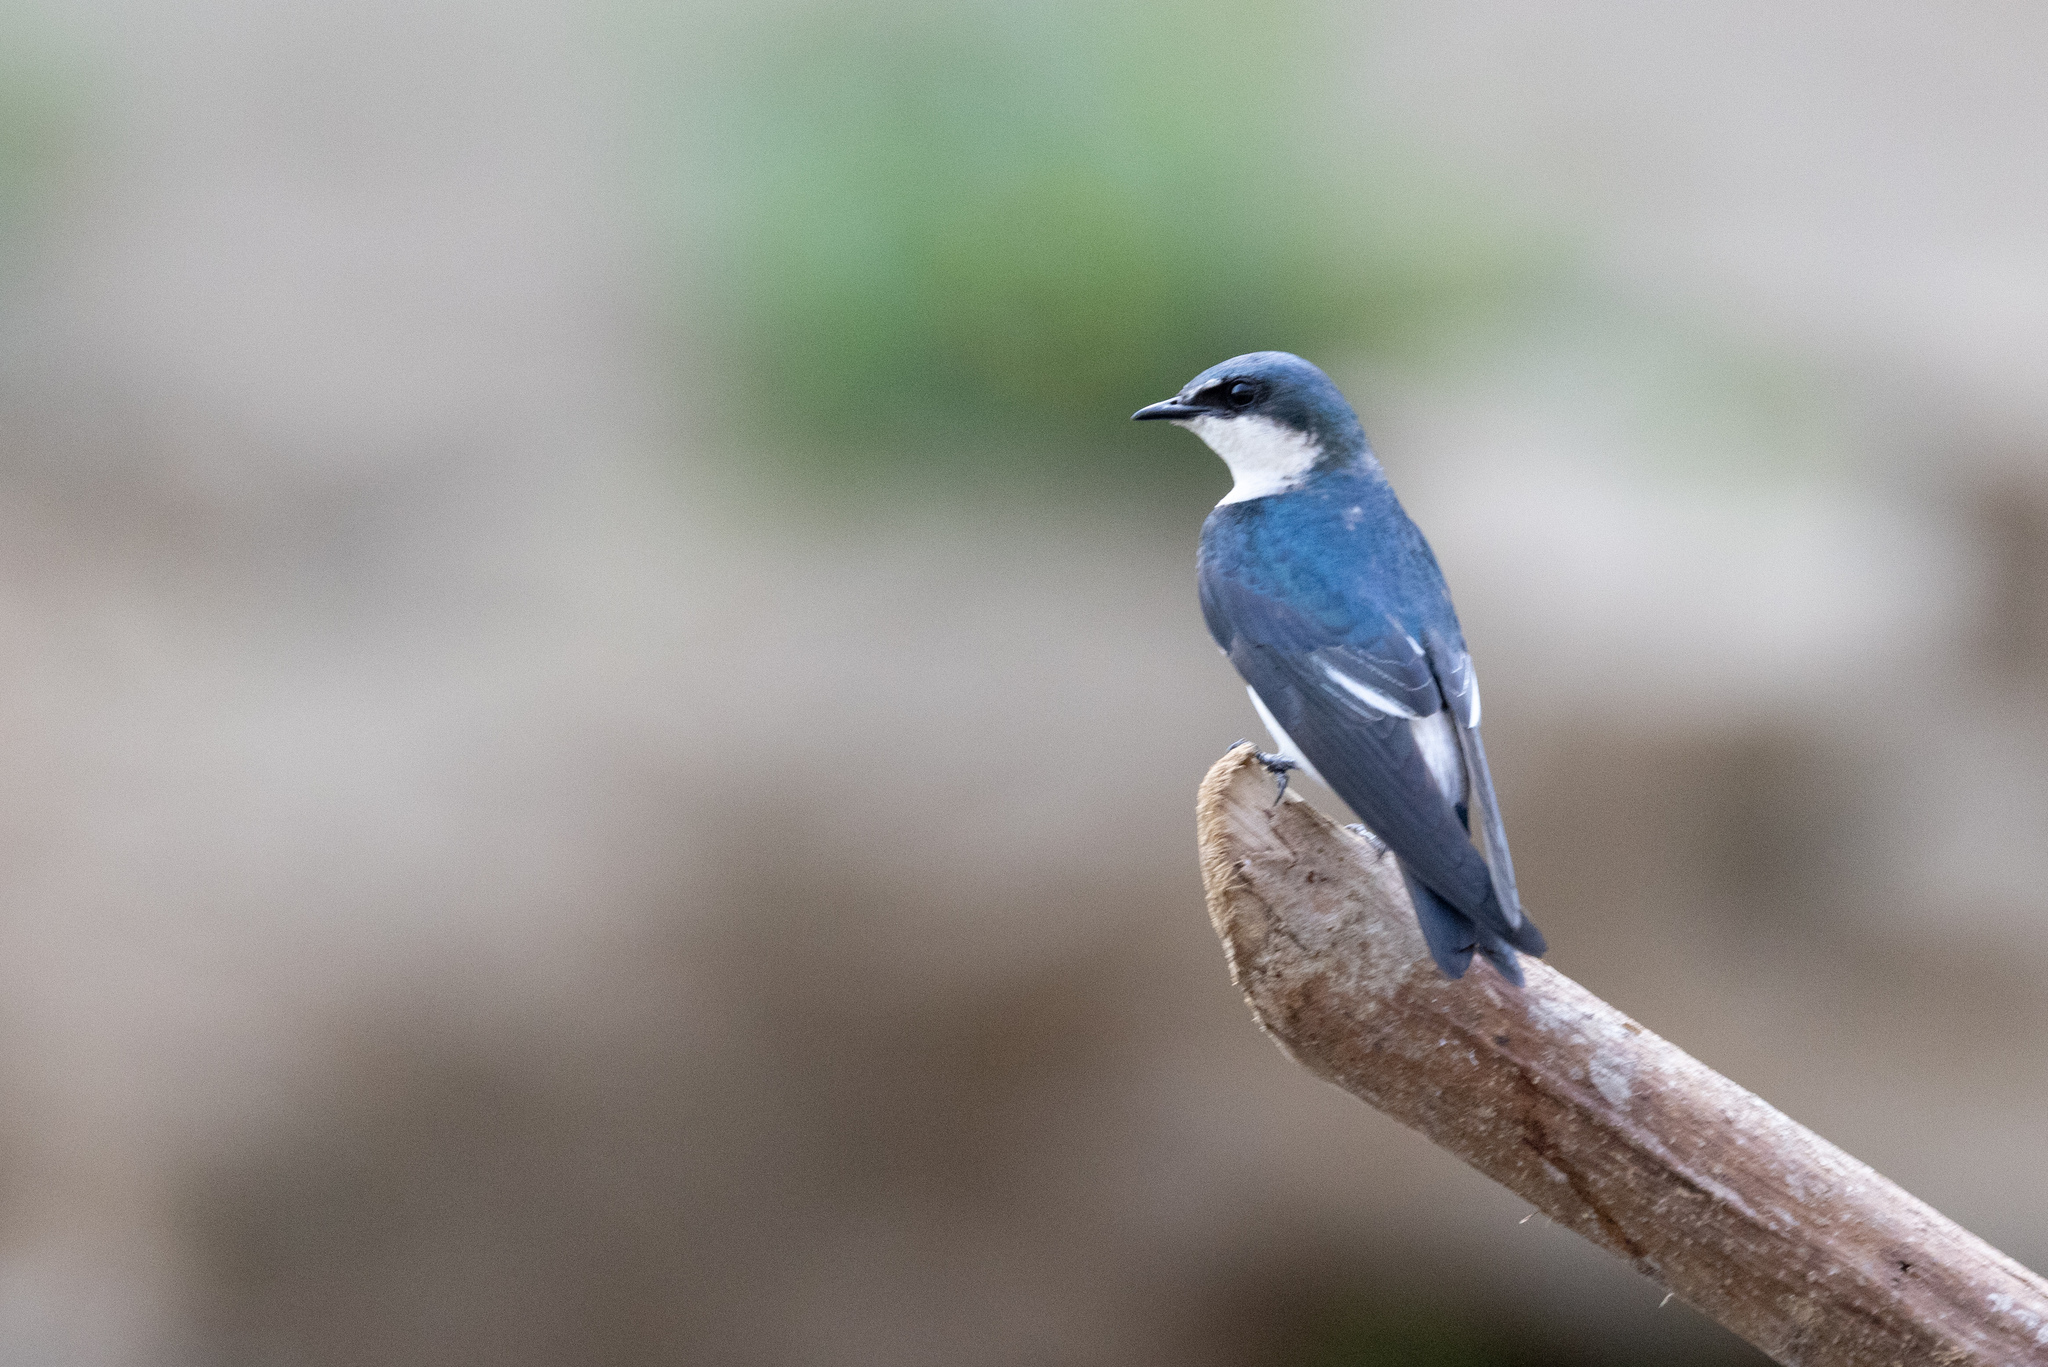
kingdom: Animalia
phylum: Chordata
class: Aves
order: Passeriformes
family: Hirundinidae
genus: Tachycineta
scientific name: Tachycineta albilinea
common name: Mangrove swallow
